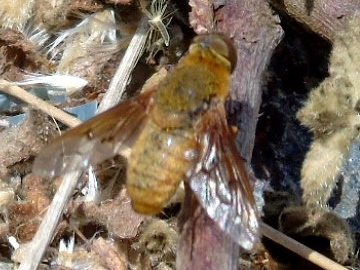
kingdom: Animalia
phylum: Arthropoda
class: Insecta
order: Diptera
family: Bombyliidae
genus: Chrysanthrax
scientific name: Chrysanthrax edititius
